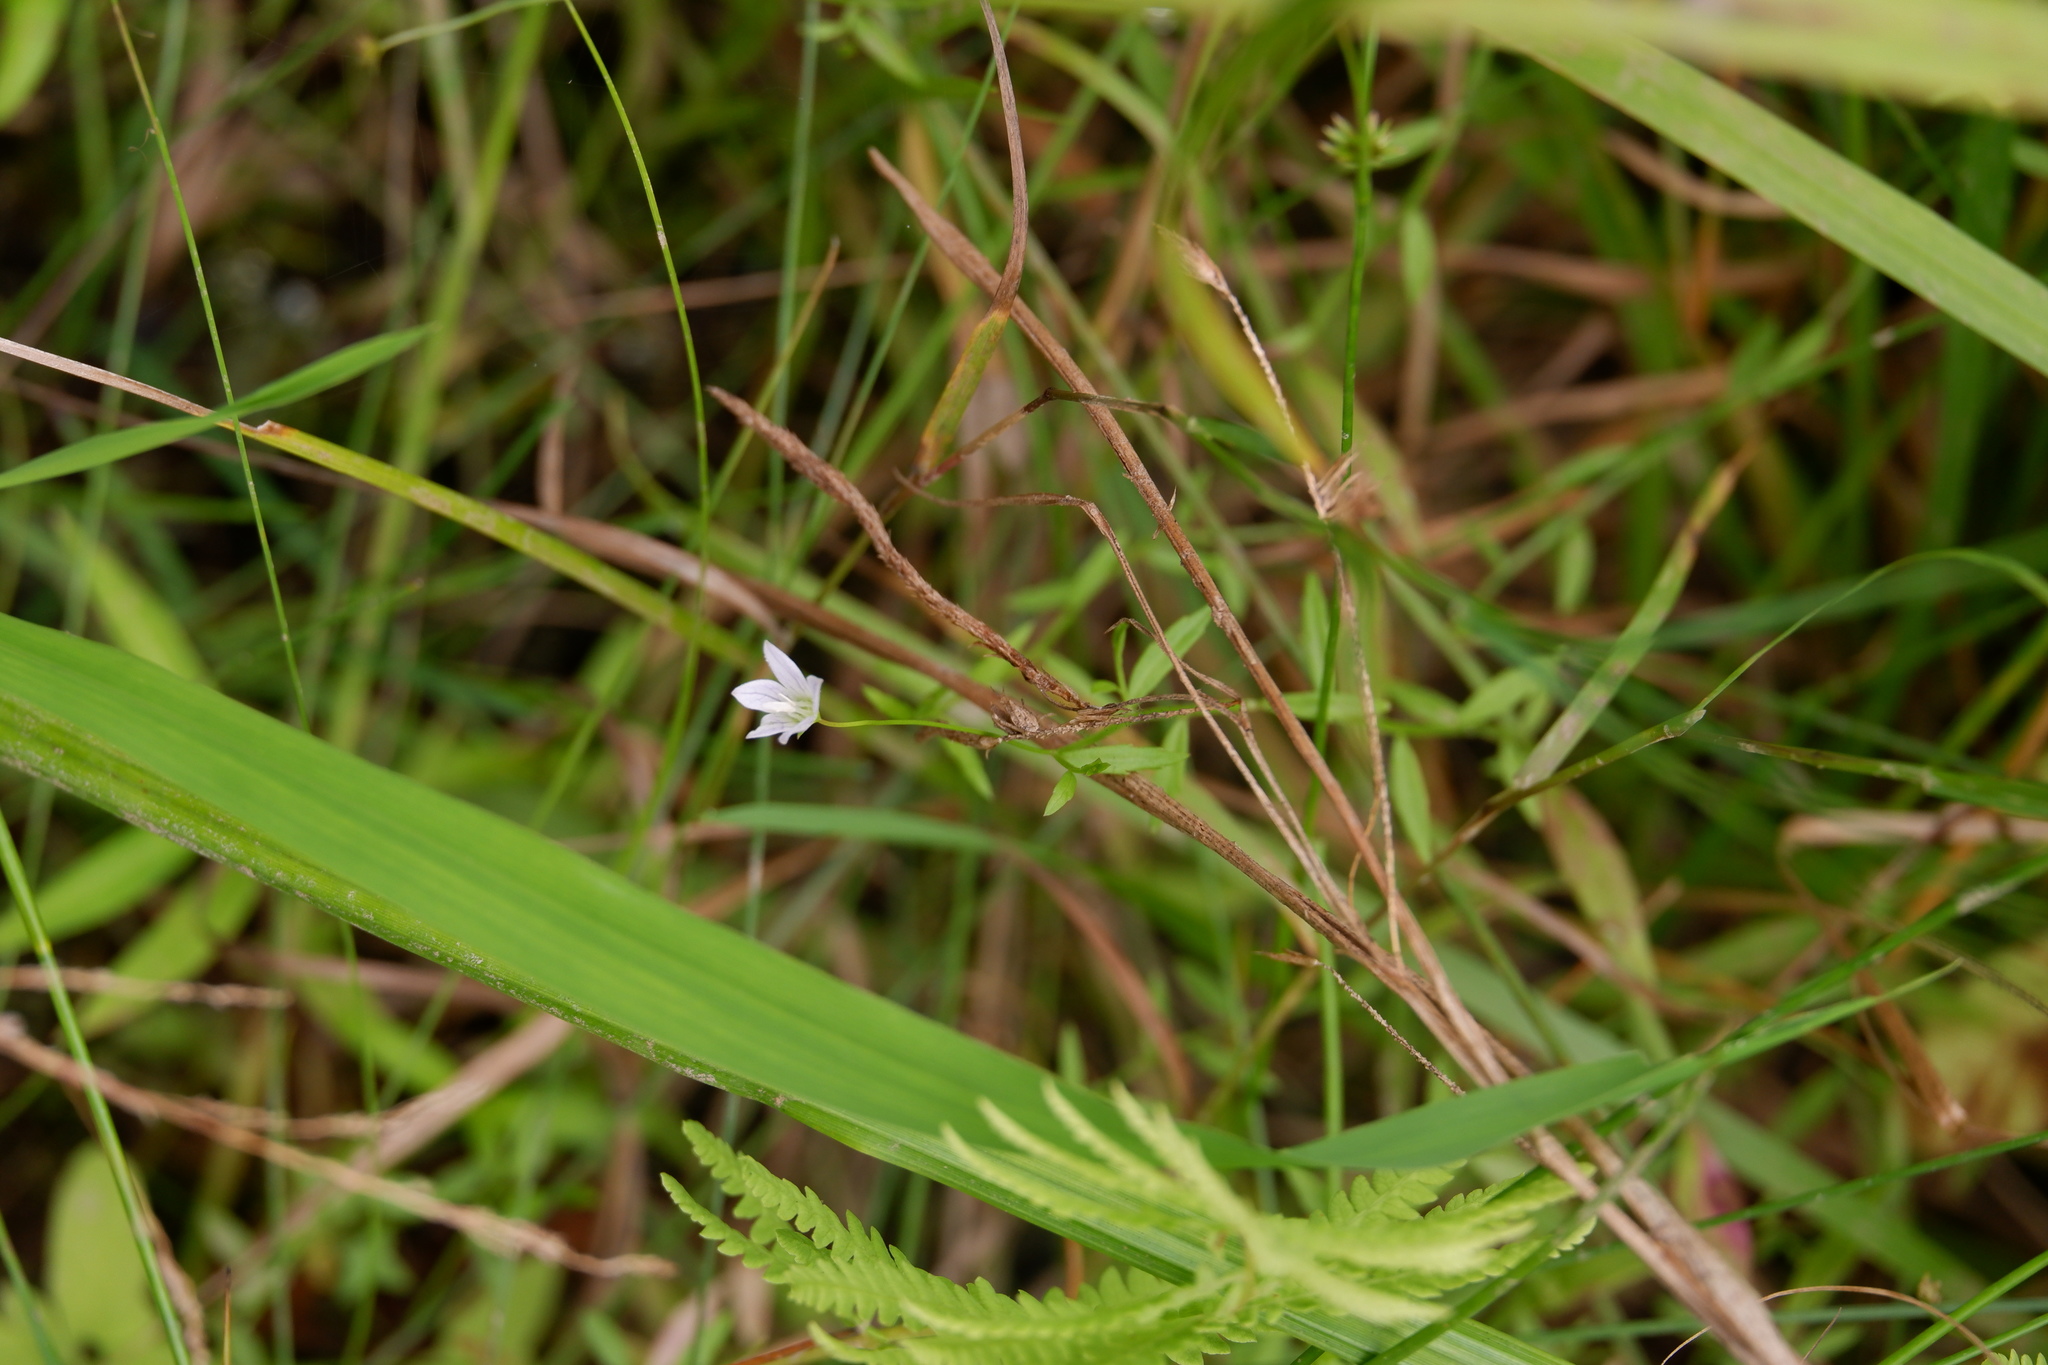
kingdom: Plantae
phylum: Tracheophyta
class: Magnoliopsida
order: Asterales
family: Campanulaceae
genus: Palustricodon
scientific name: Palustricodon aparinoides
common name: Bedstraw bellflower
